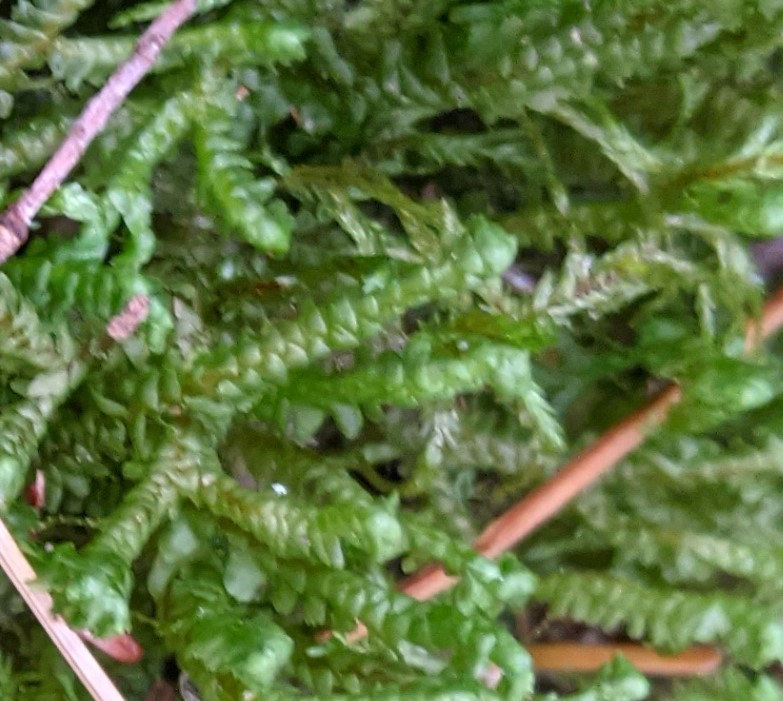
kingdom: Plantae
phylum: Marchantiophyta
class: Jungermanniopsida
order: Jungermanniales
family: Lepidoziaceae
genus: Bazzania
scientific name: Bazzania trilobata
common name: Three-lobed whipwort
